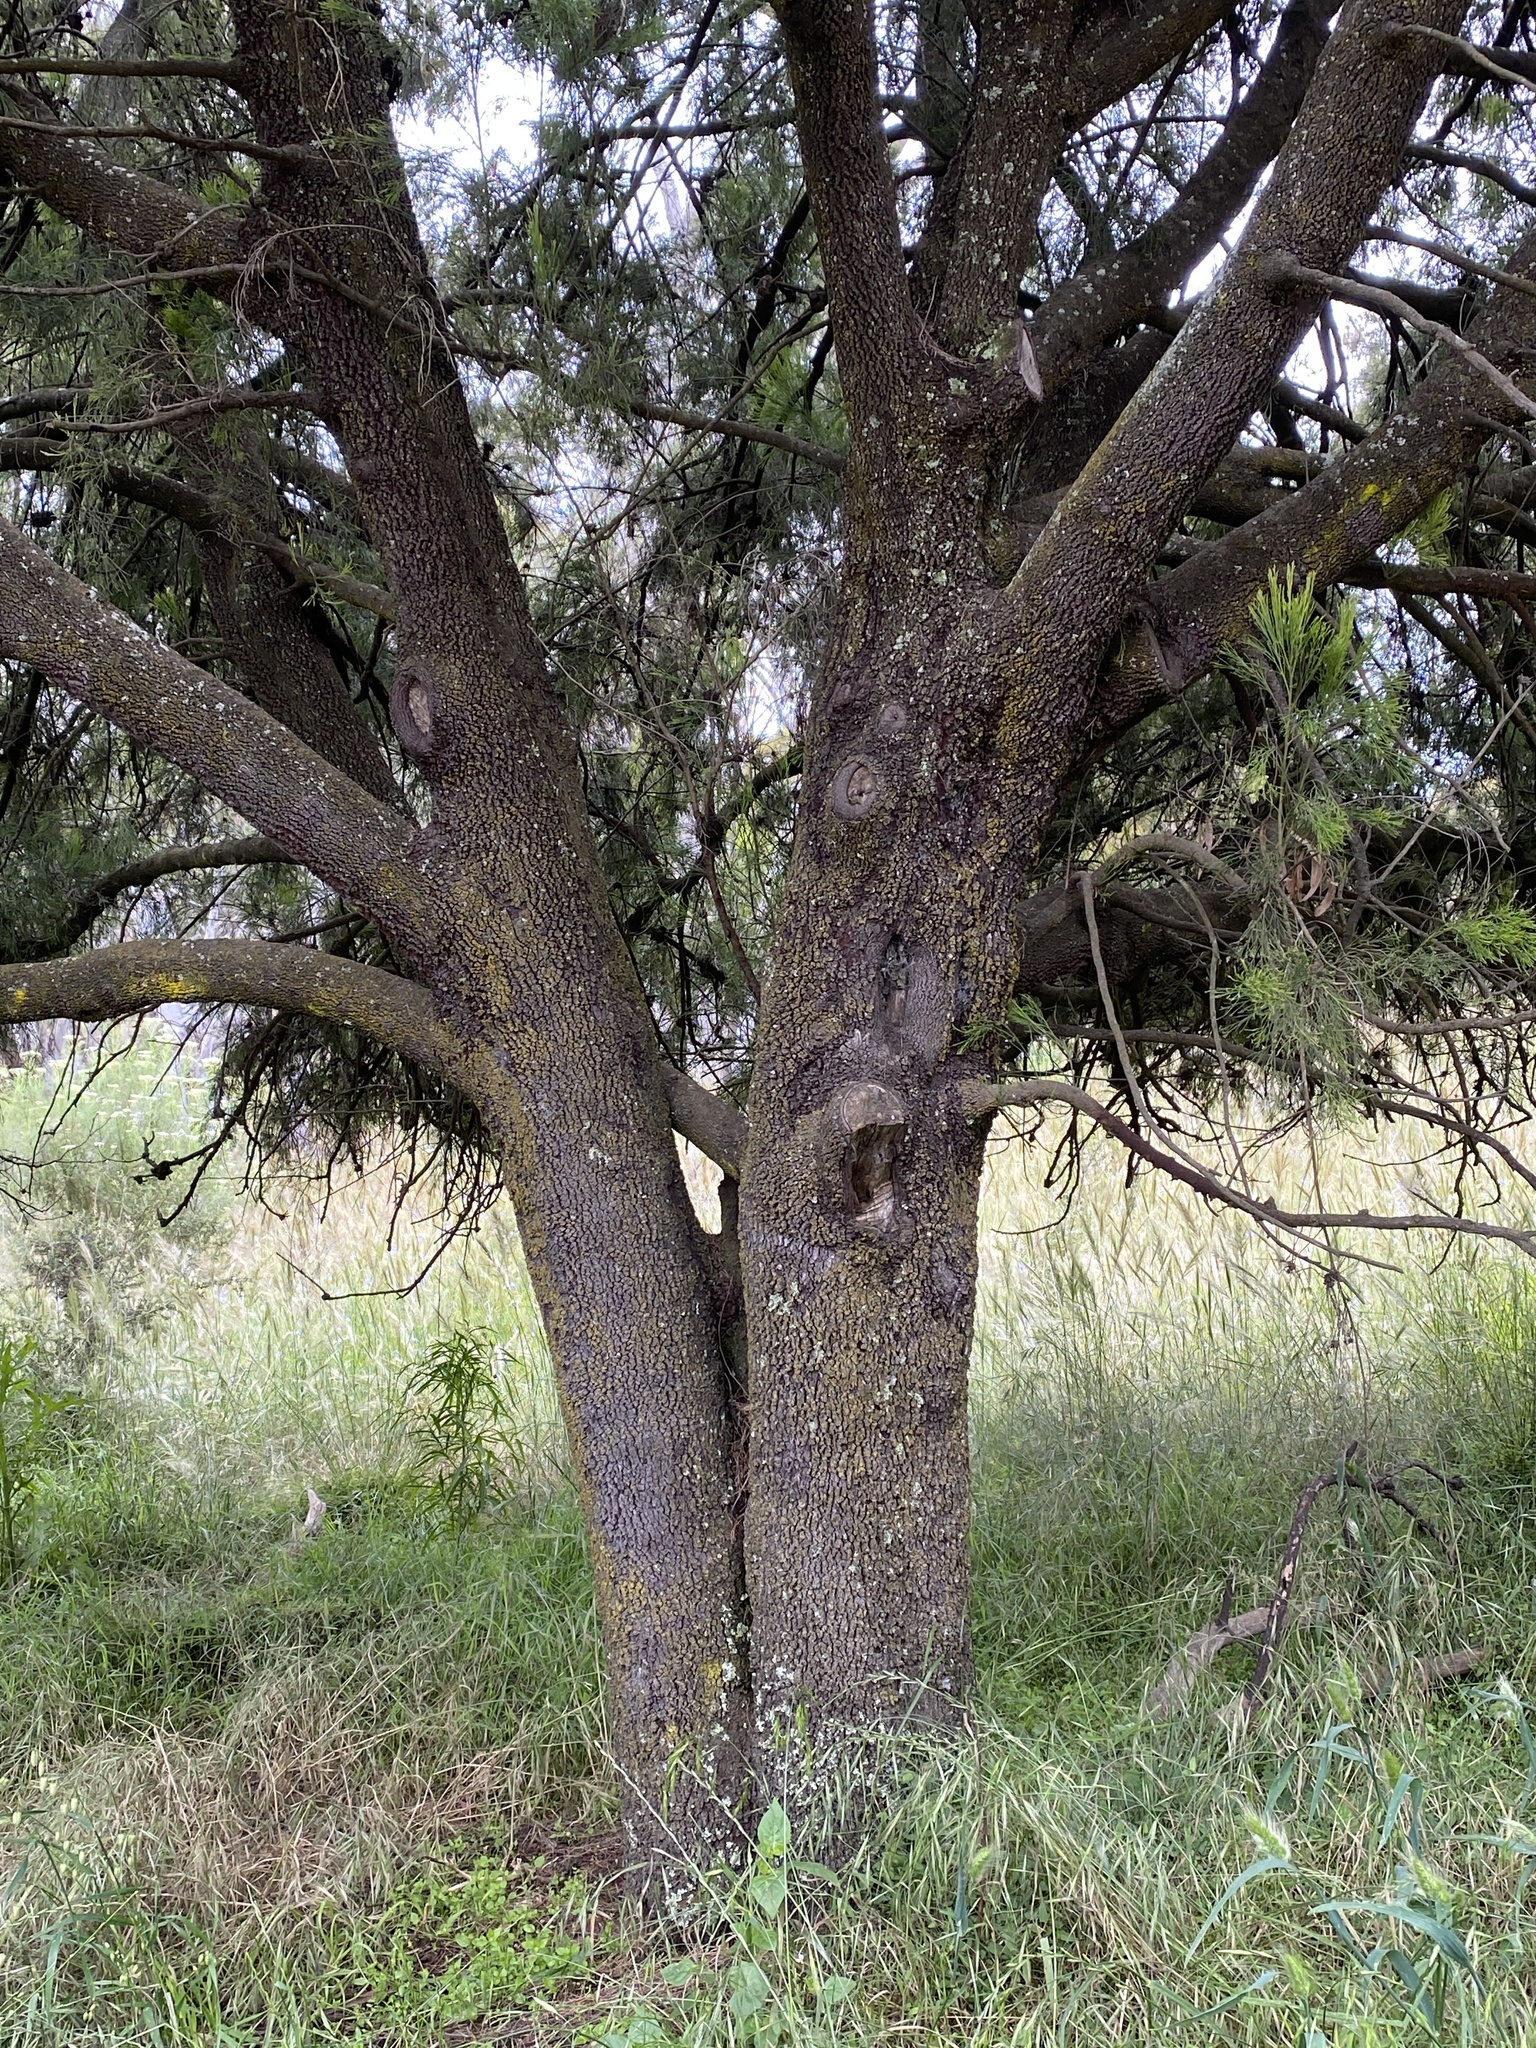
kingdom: Plantae
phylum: Tracheophyta
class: Magnoliopsida
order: Santalales
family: Santalaceae
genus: Exocarpos
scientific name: Exocarpos cupressiformis
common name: Cherry ballart
